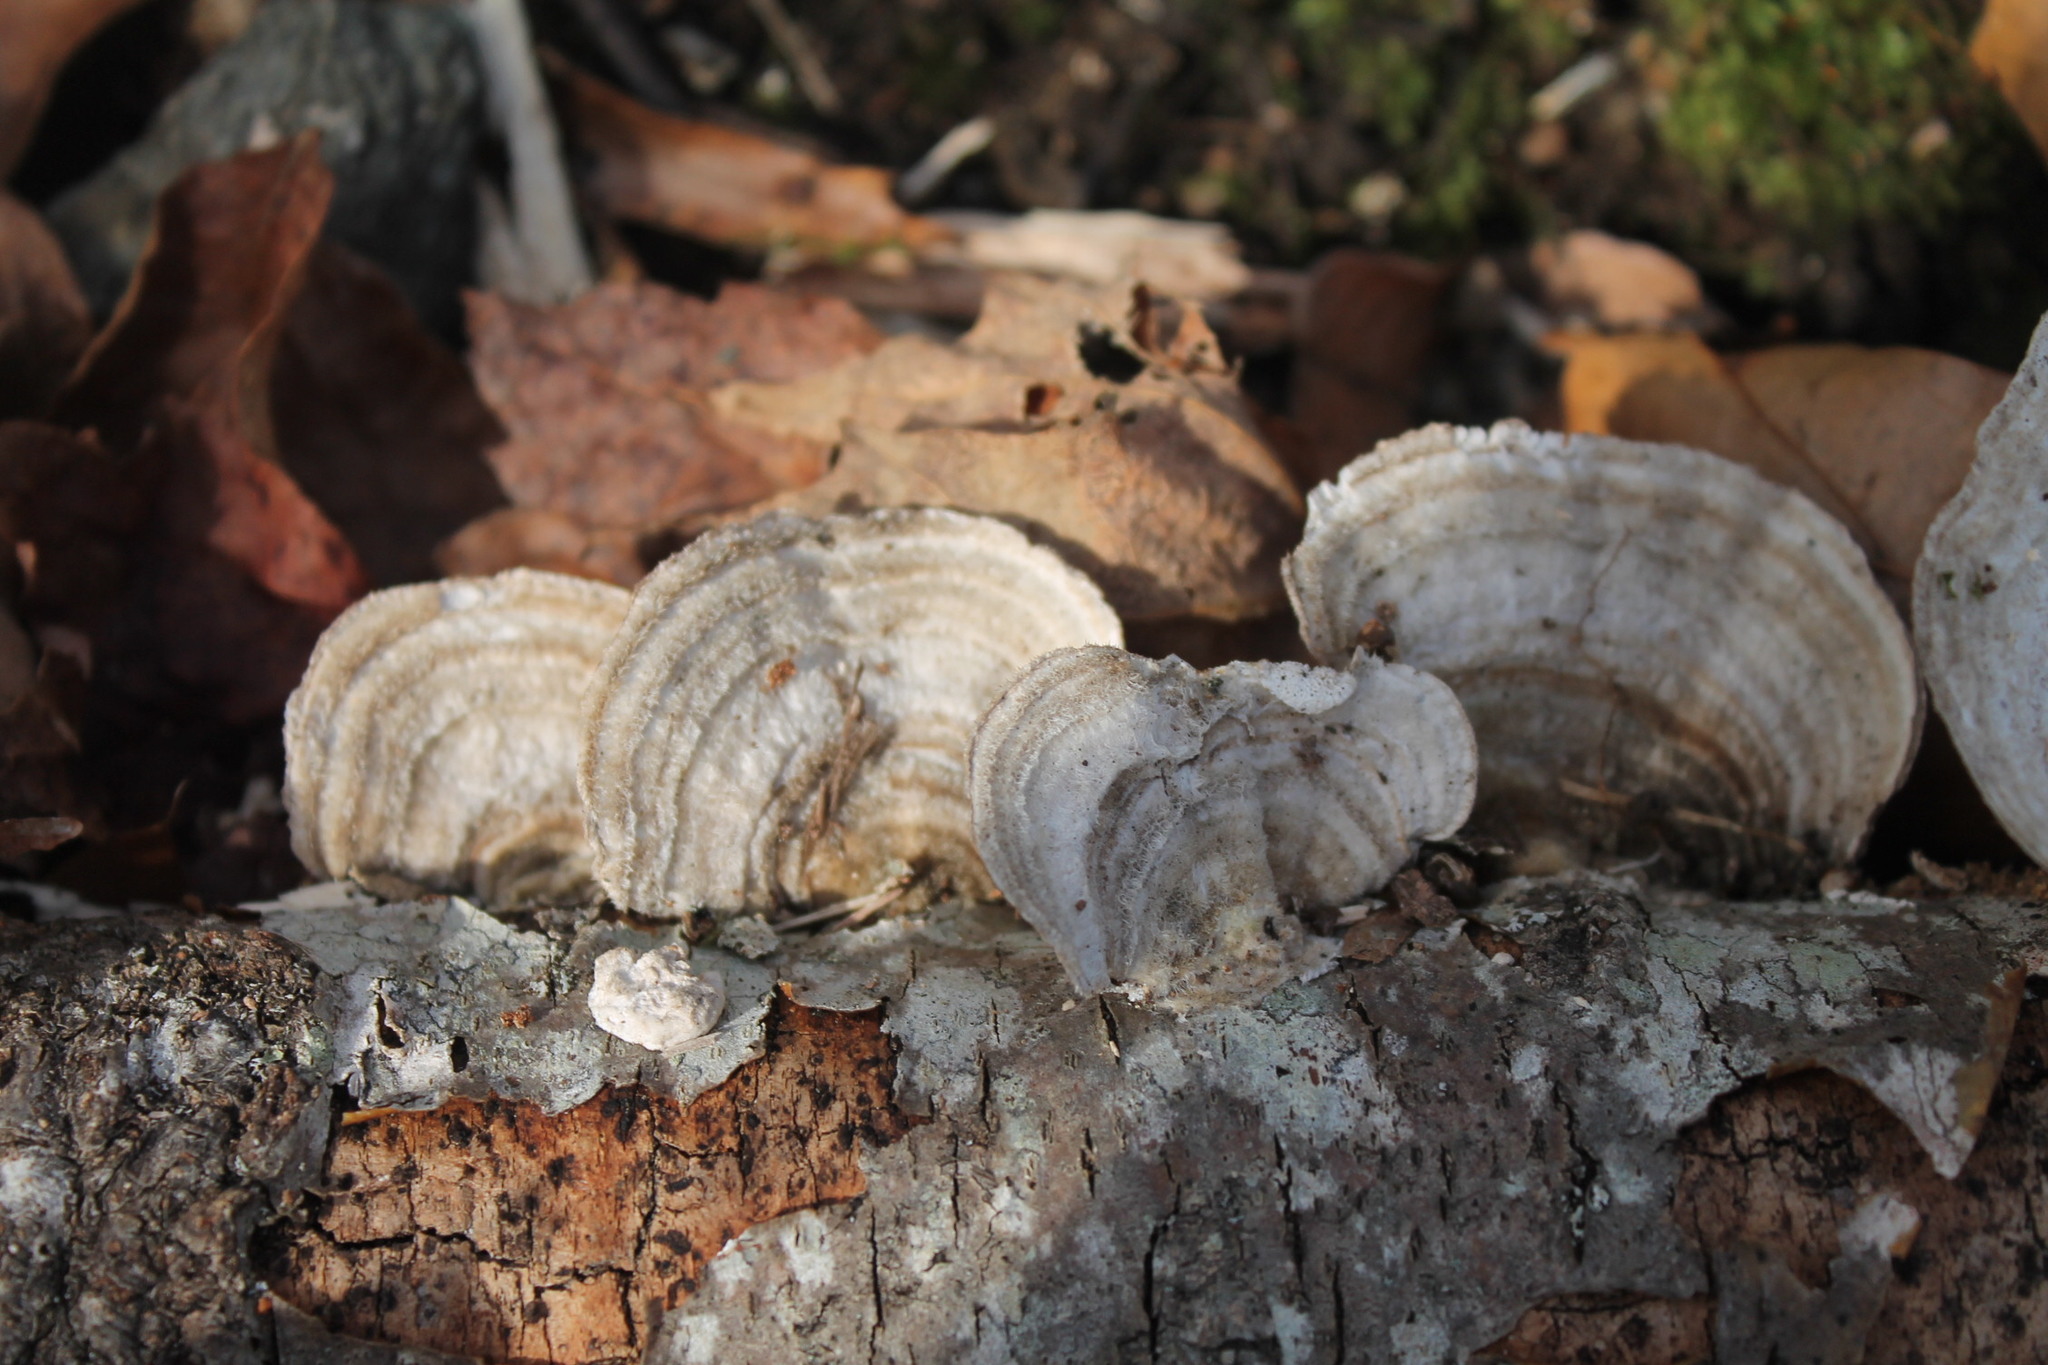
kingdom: Fungi
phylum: Basidiomycota
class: Agaricomycetes
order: Polyporales
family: Polyporaceae
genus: Trametes
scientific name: Trametes hirsuta
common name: Hairy bracket
